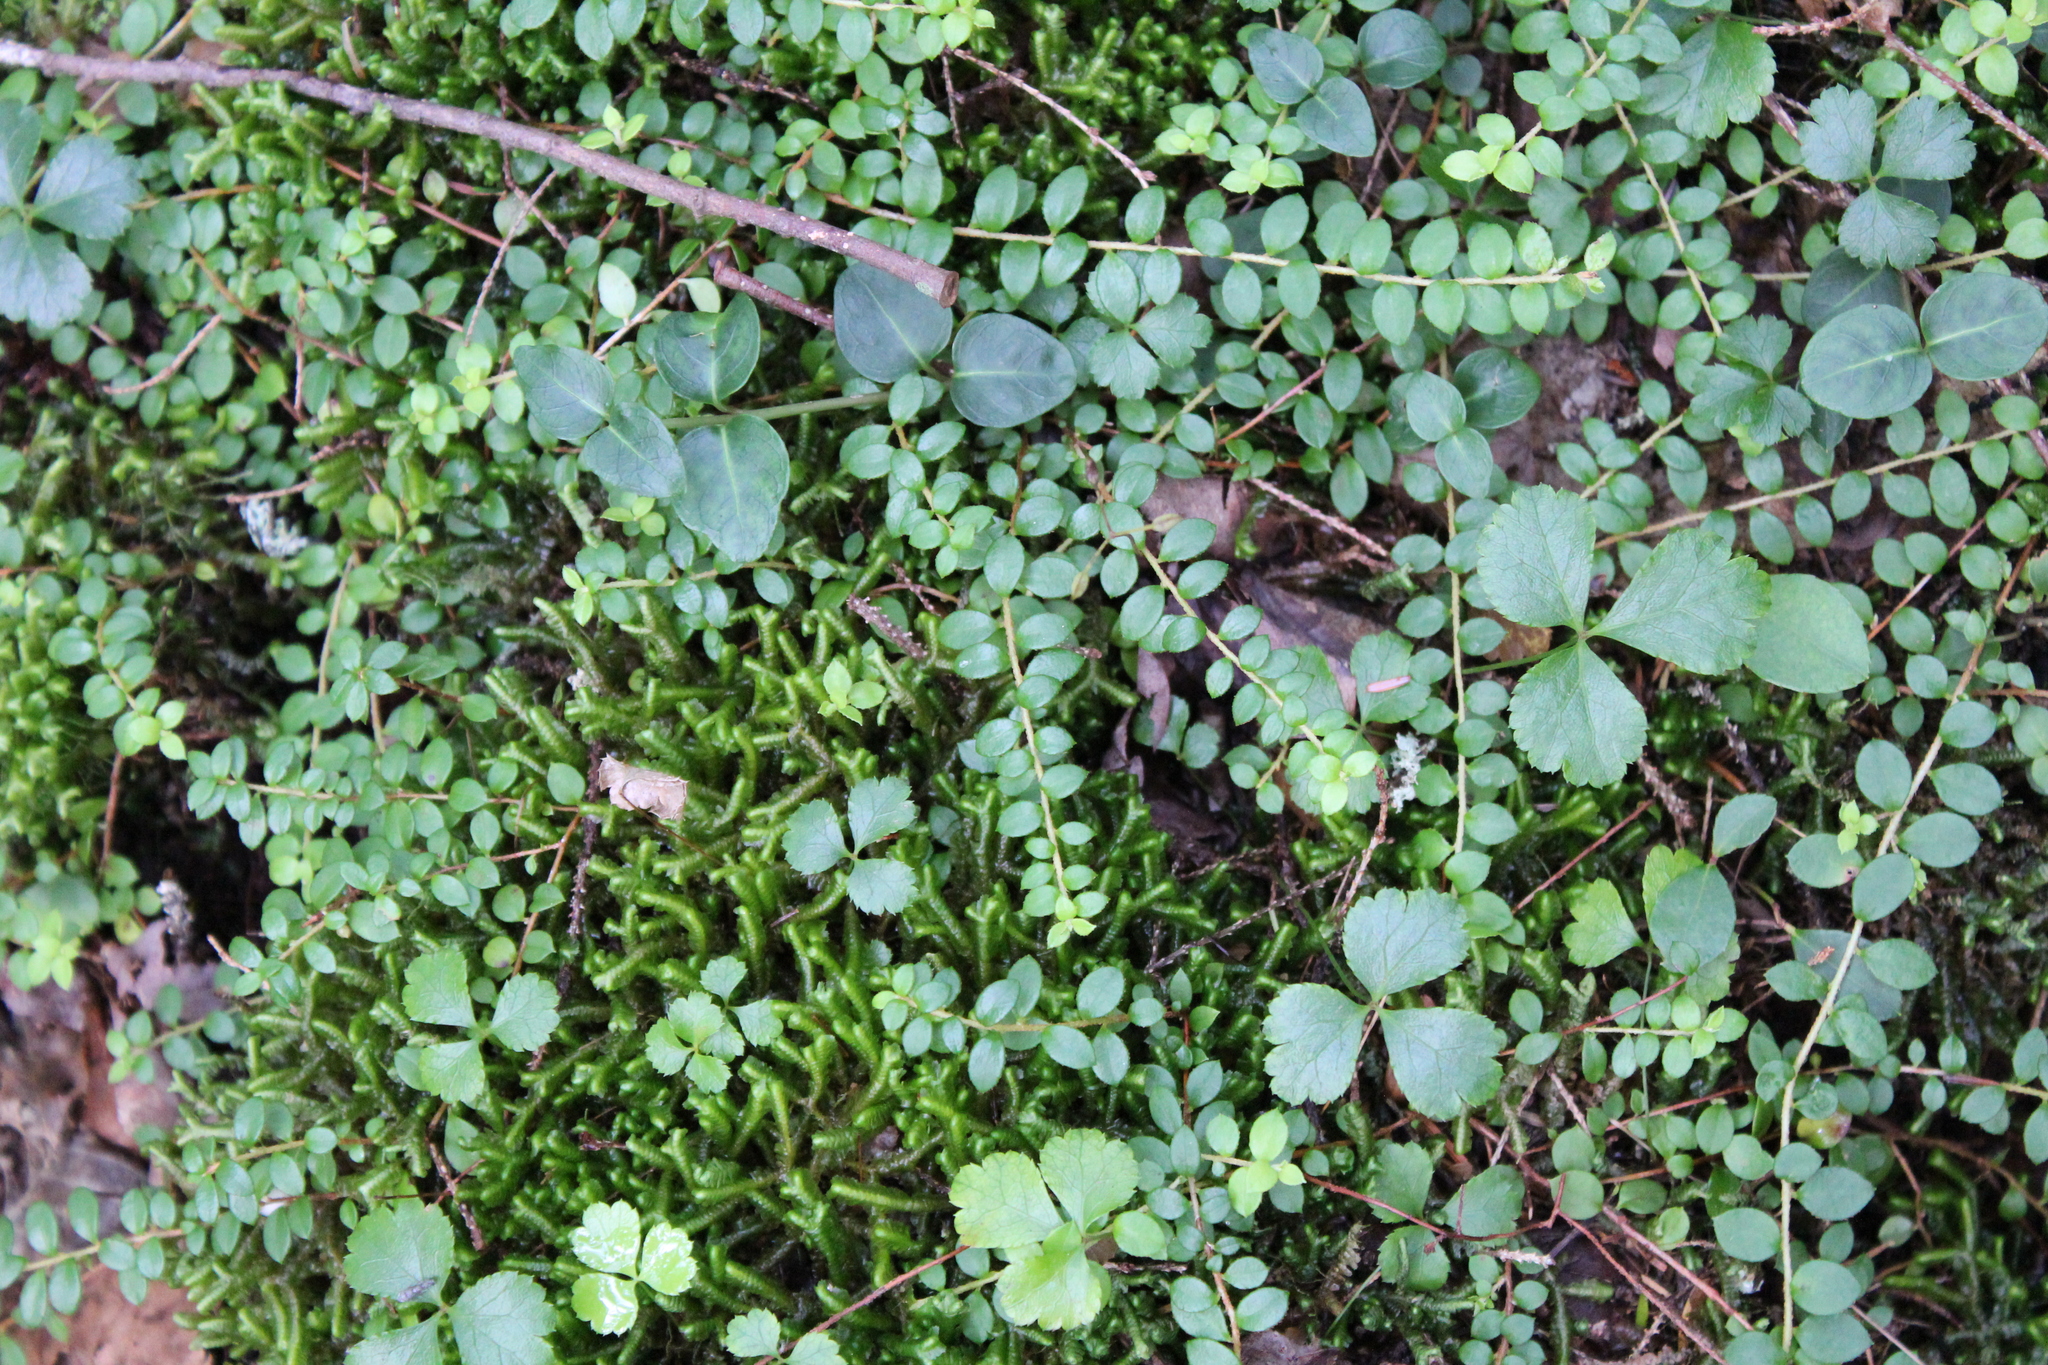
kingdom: Plantae
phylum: Tracheophyta
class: Magnoliopsida
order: Ericales
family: Ericaceae
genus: Gaultheria
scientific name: Gaultheria hispidula
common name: Cancer wintergreen
